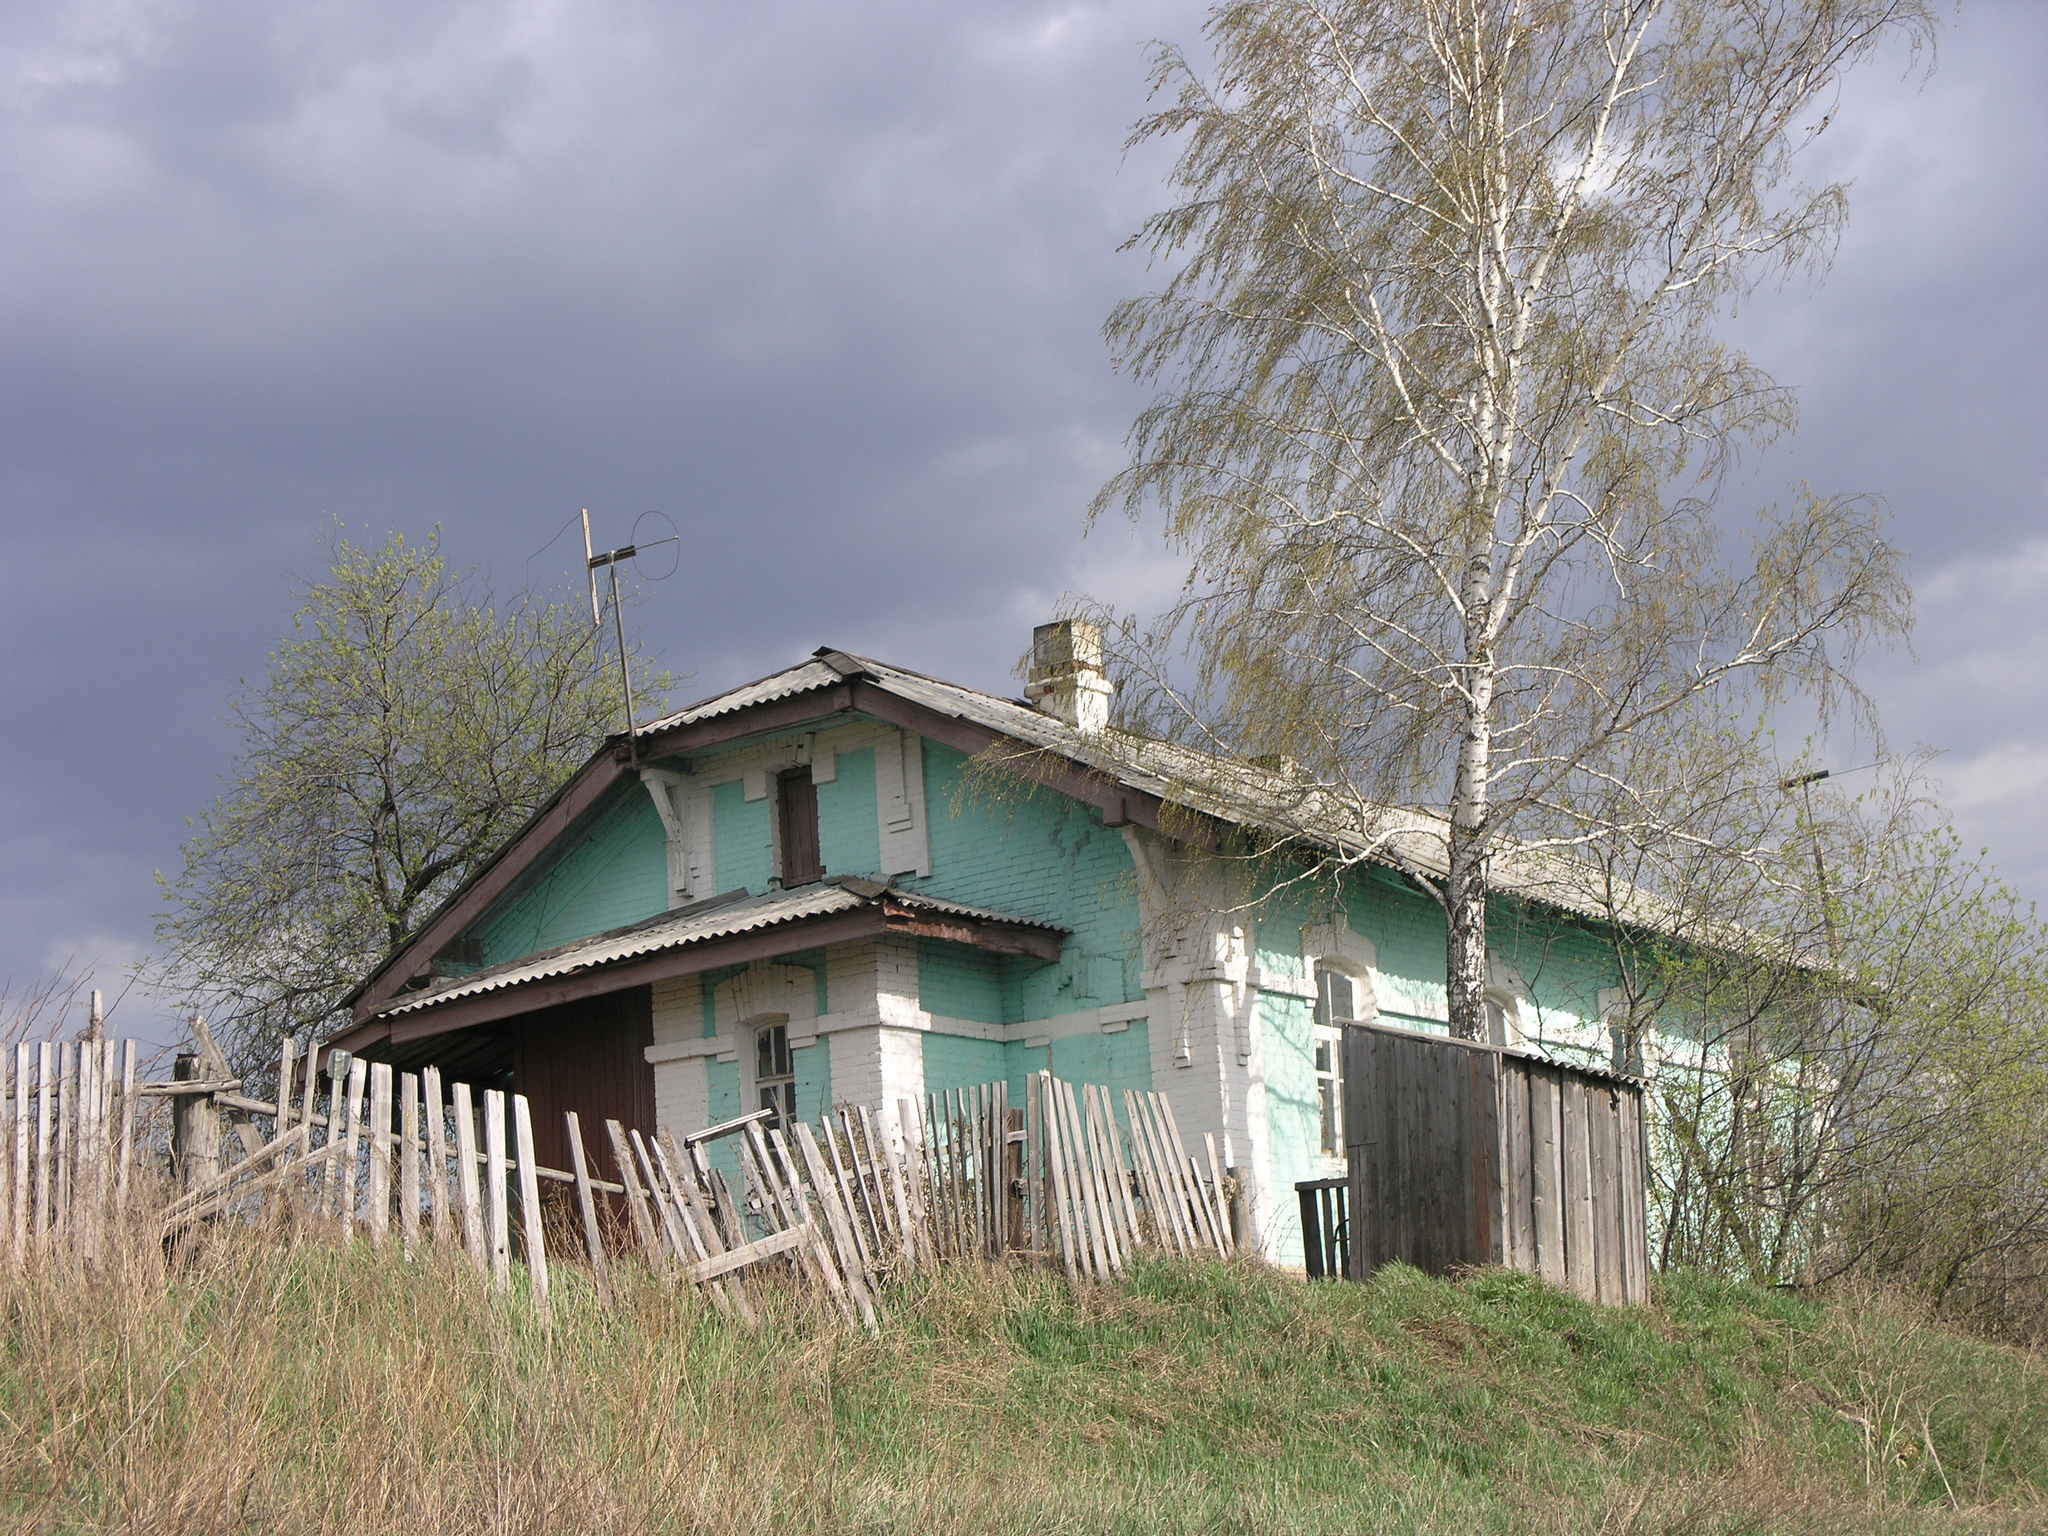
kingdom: Plantae
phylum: Tracheophyta
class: Magnoliopsida
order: Fagales
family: Betulaceae
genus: Betula
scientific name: Betula pendula
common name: Silver birch
